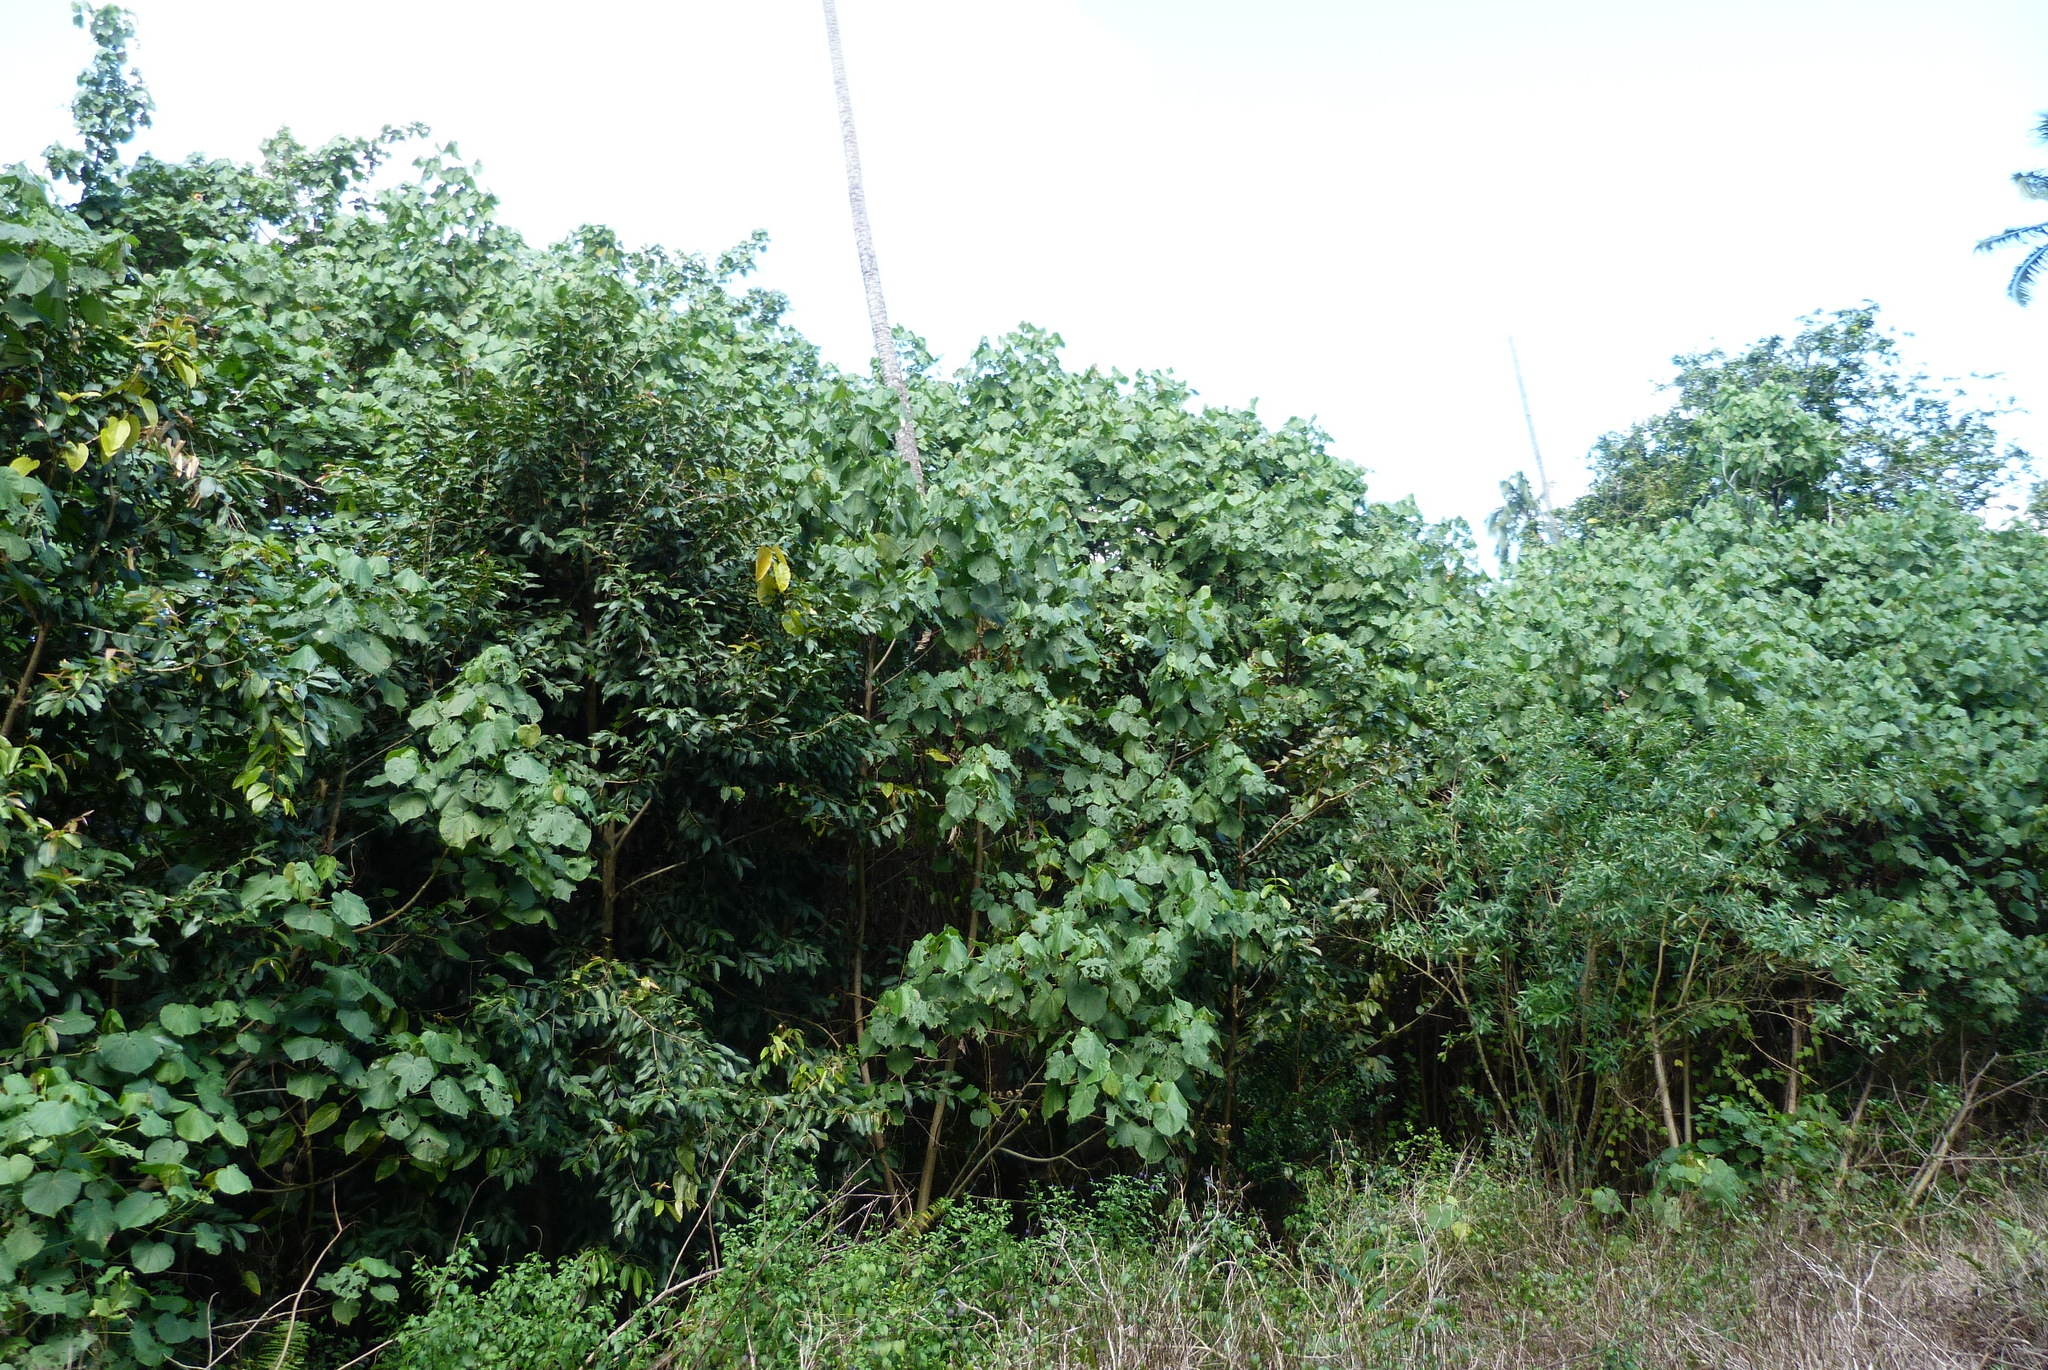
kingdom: Plantae
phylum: Tracheophyta
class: Magnoliopsida
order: Malvales
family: Malvaceae
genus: Talipariti
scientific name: Talipariti tiliaceum
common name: Sea hibiscus
